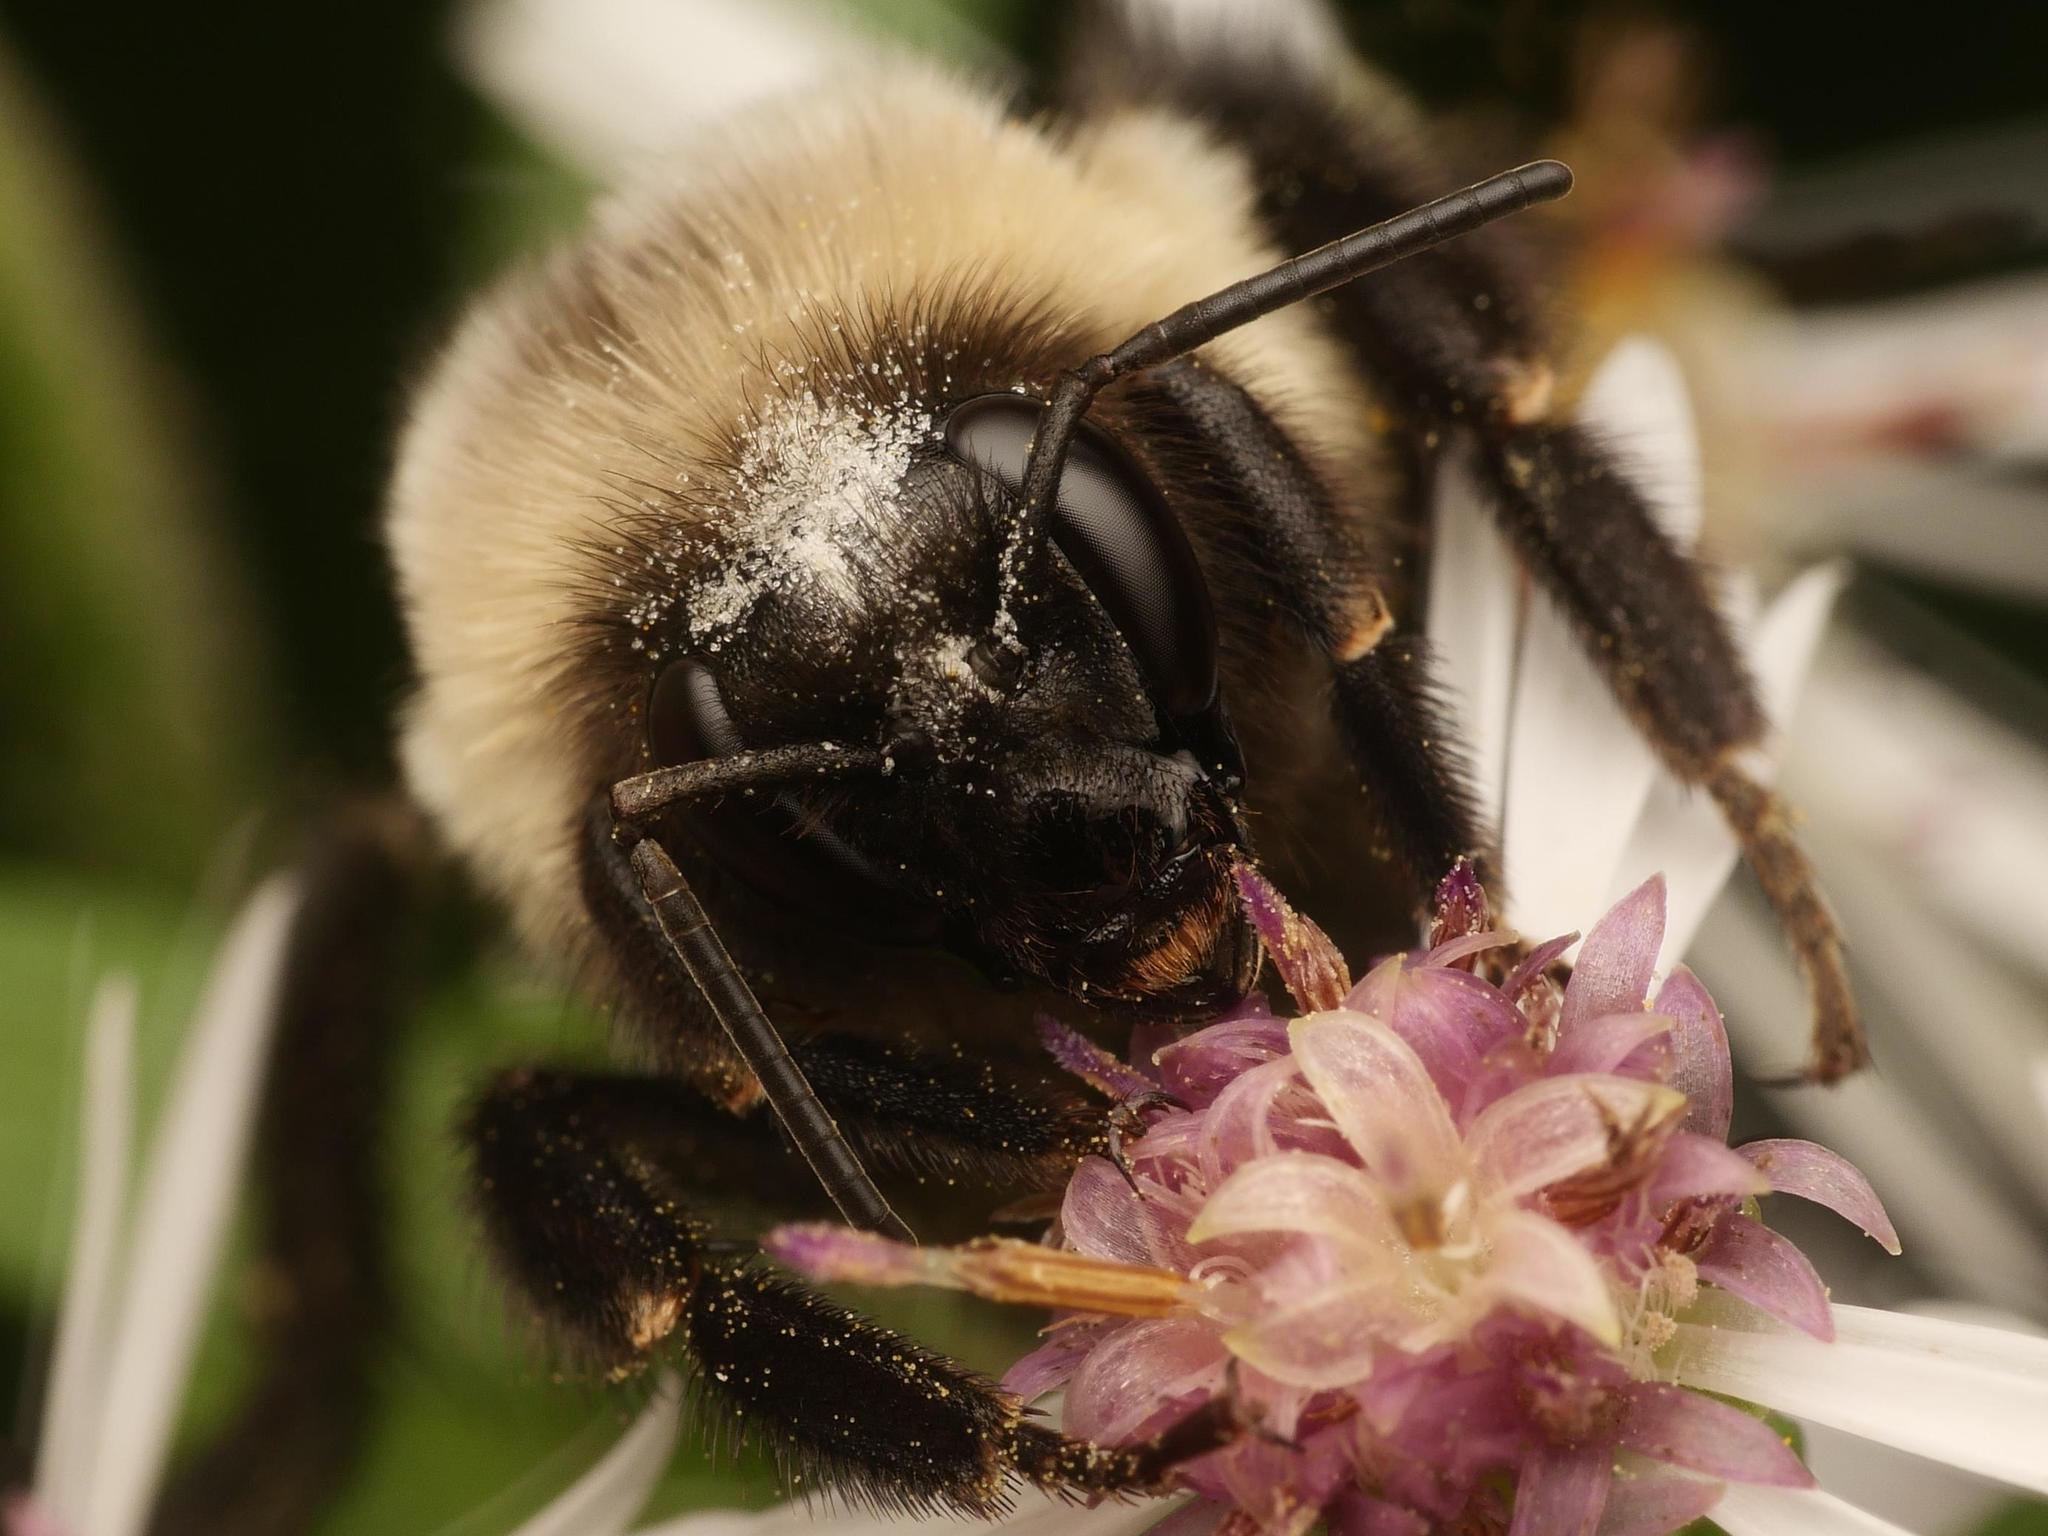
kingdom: Animalia
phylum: Arthropoda
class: Insecta
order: Hymenoptera
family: Apidae
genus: Bombus
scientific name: Bombus impatiens
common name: Common eastern bumble bee
